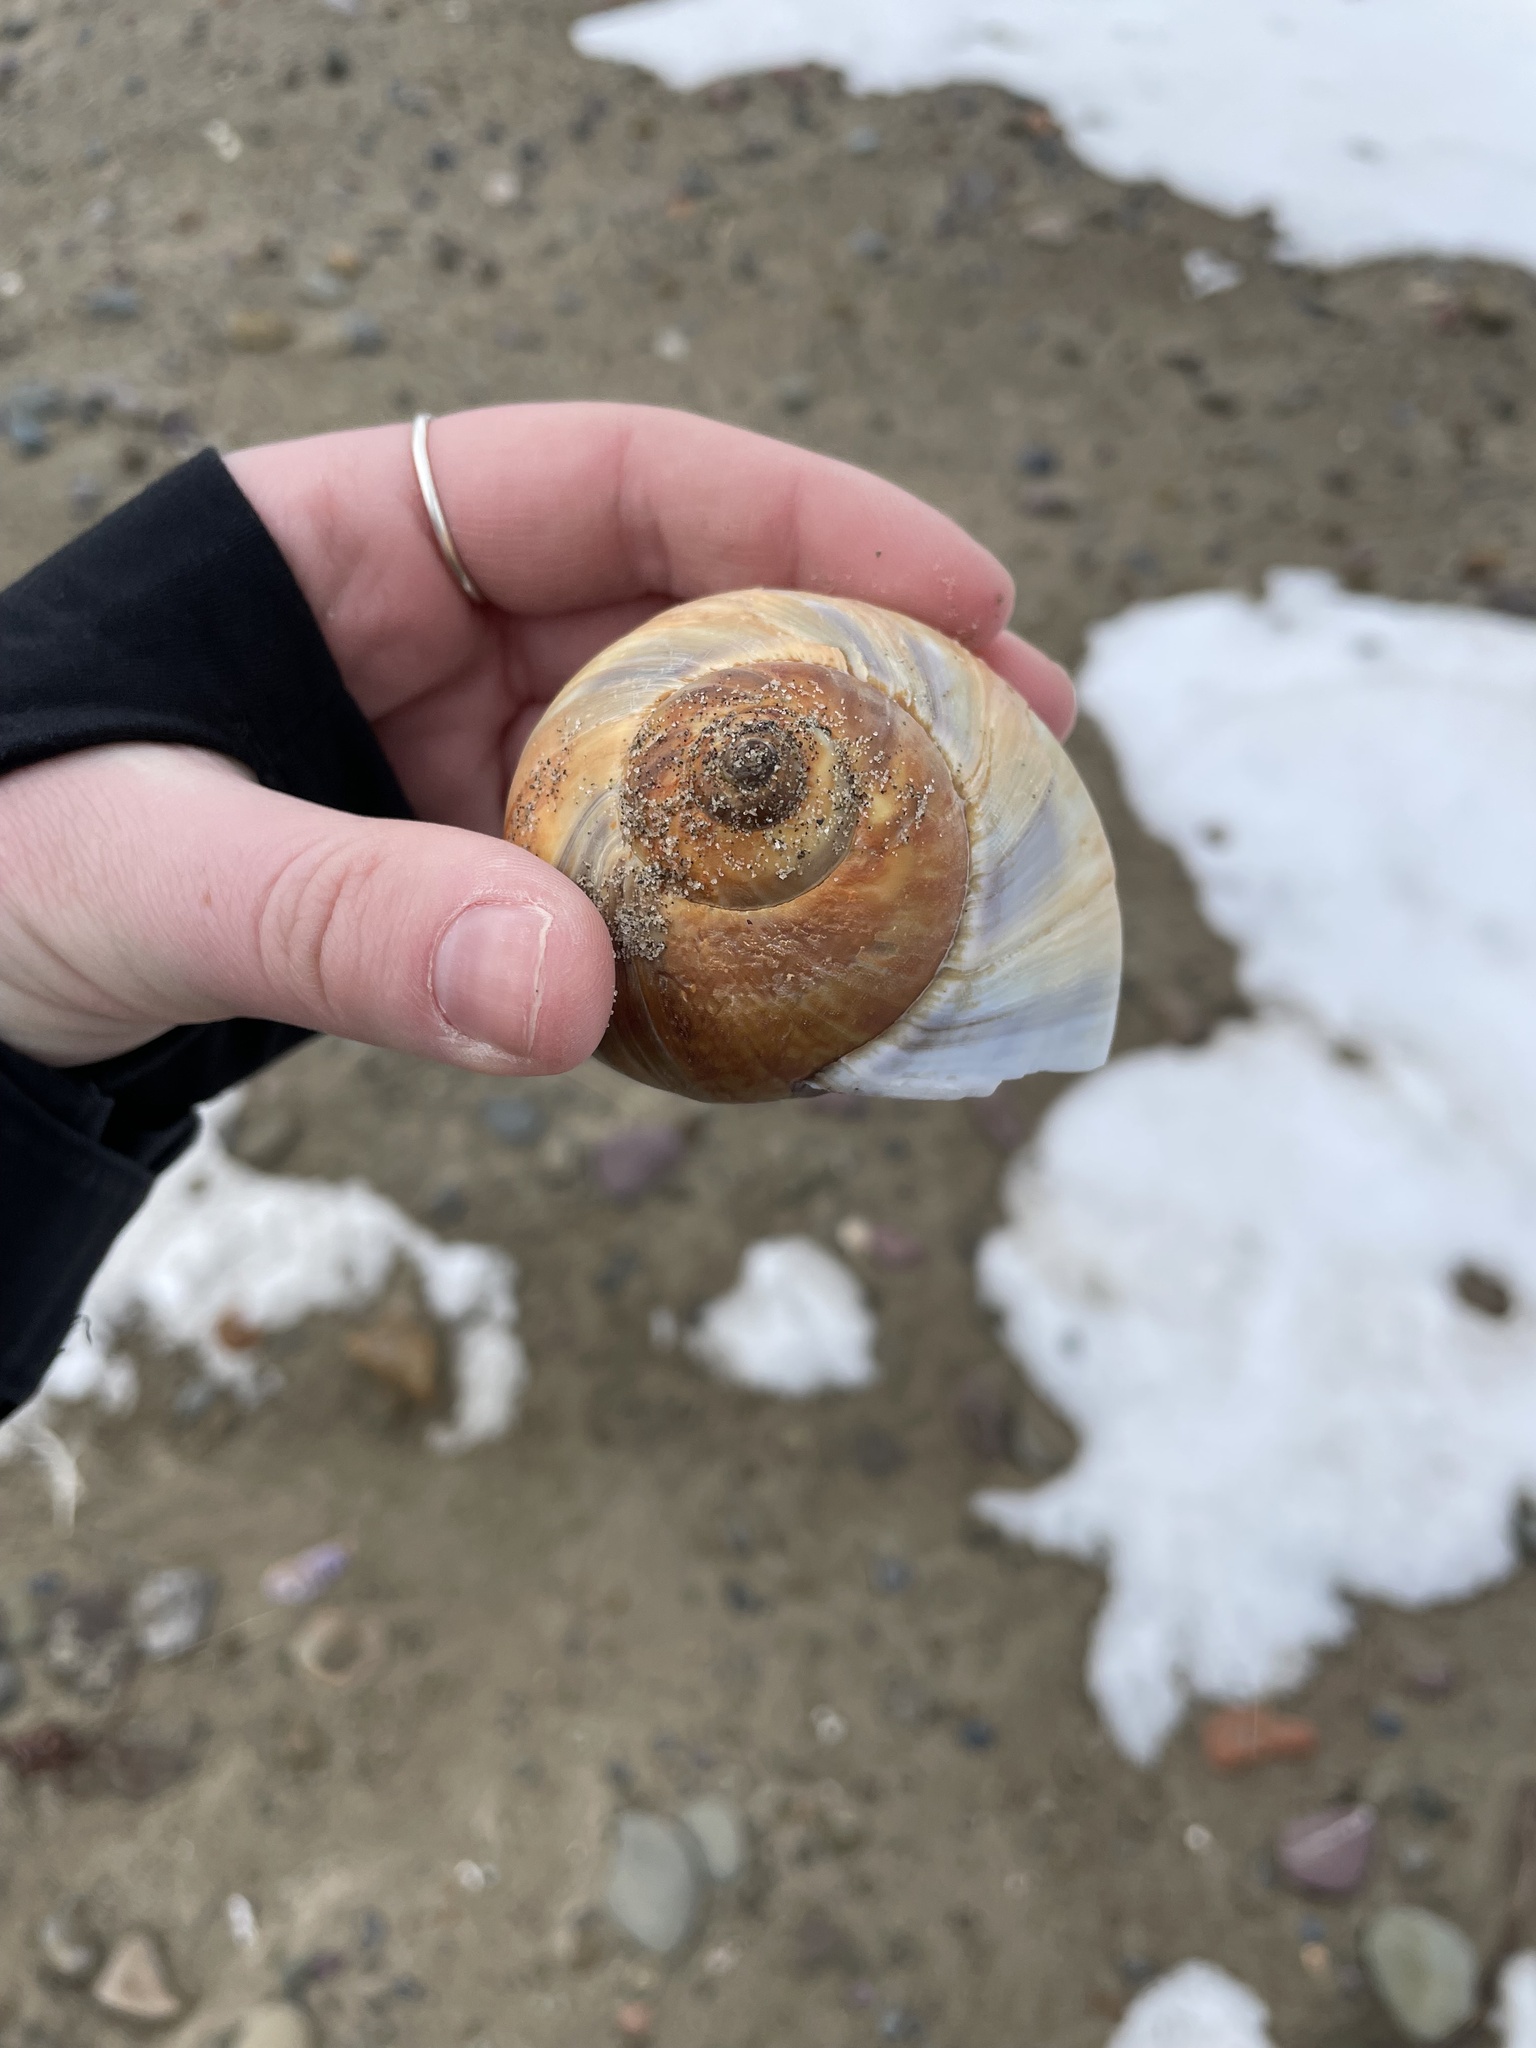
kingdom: Animalia
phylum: Mollusca
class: Gastropoda
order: Littorinimorpha
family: Naticidae
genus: Euspira
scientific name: Euspira heros
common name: Common northern moonsnail
